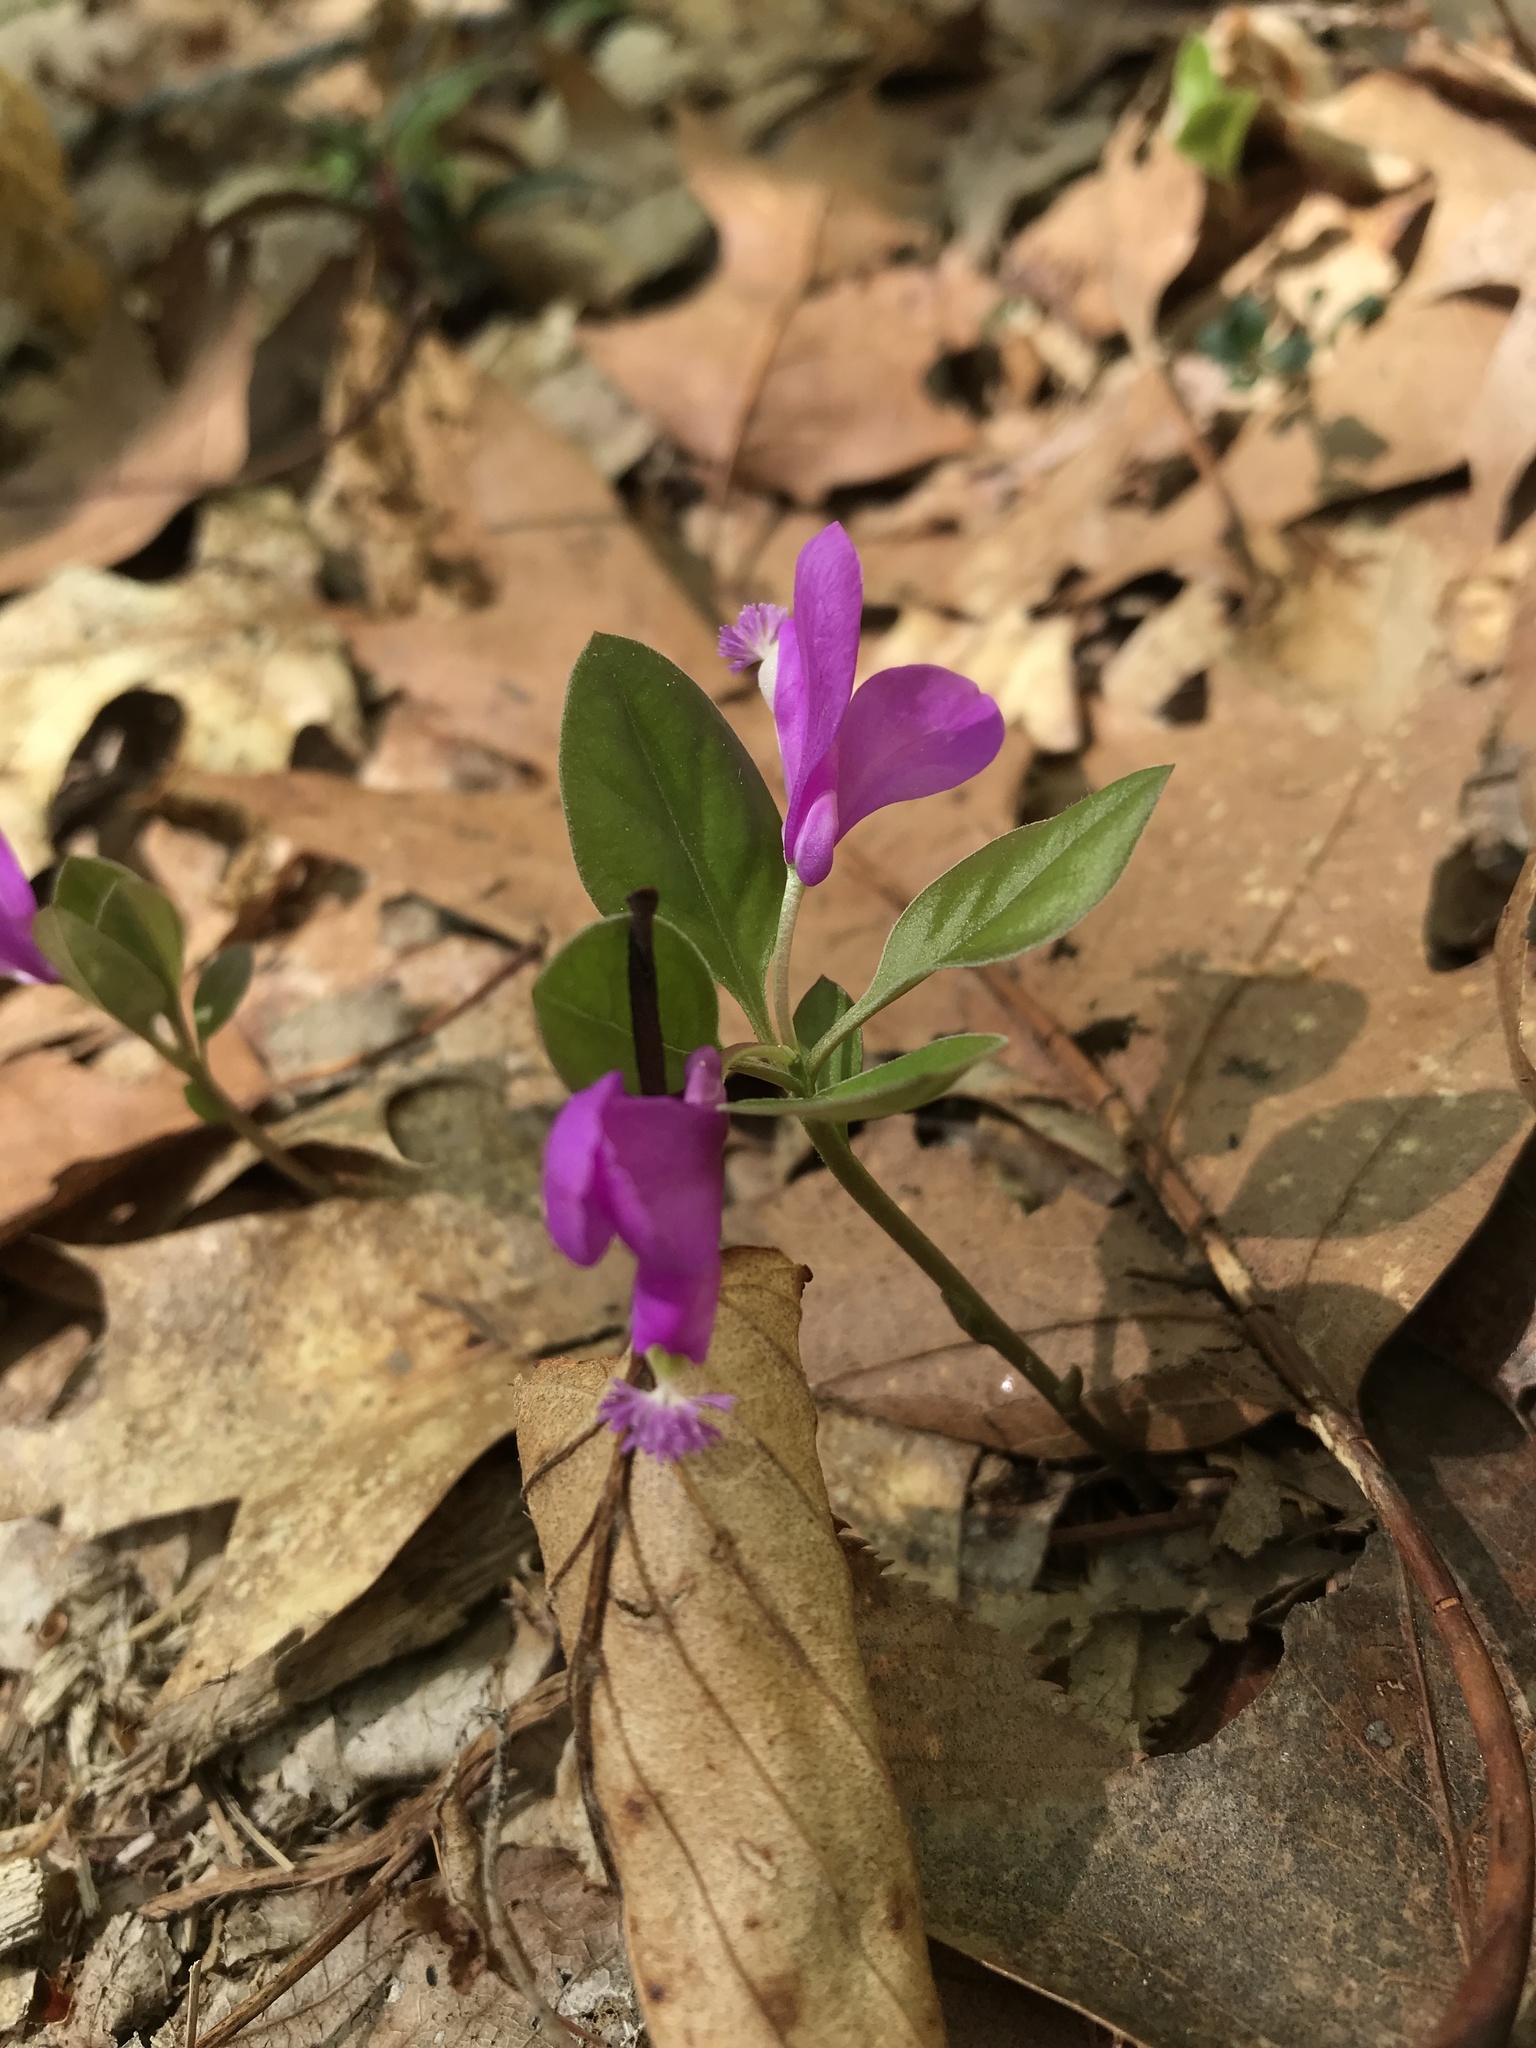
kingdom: Plantae
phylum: Tracheophyta
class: Magnoliopsida
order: Fabales
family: Polygalaceae
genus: Polygaloides
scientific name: Polygaloides paucifolia
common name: Bird-on-the-wing
